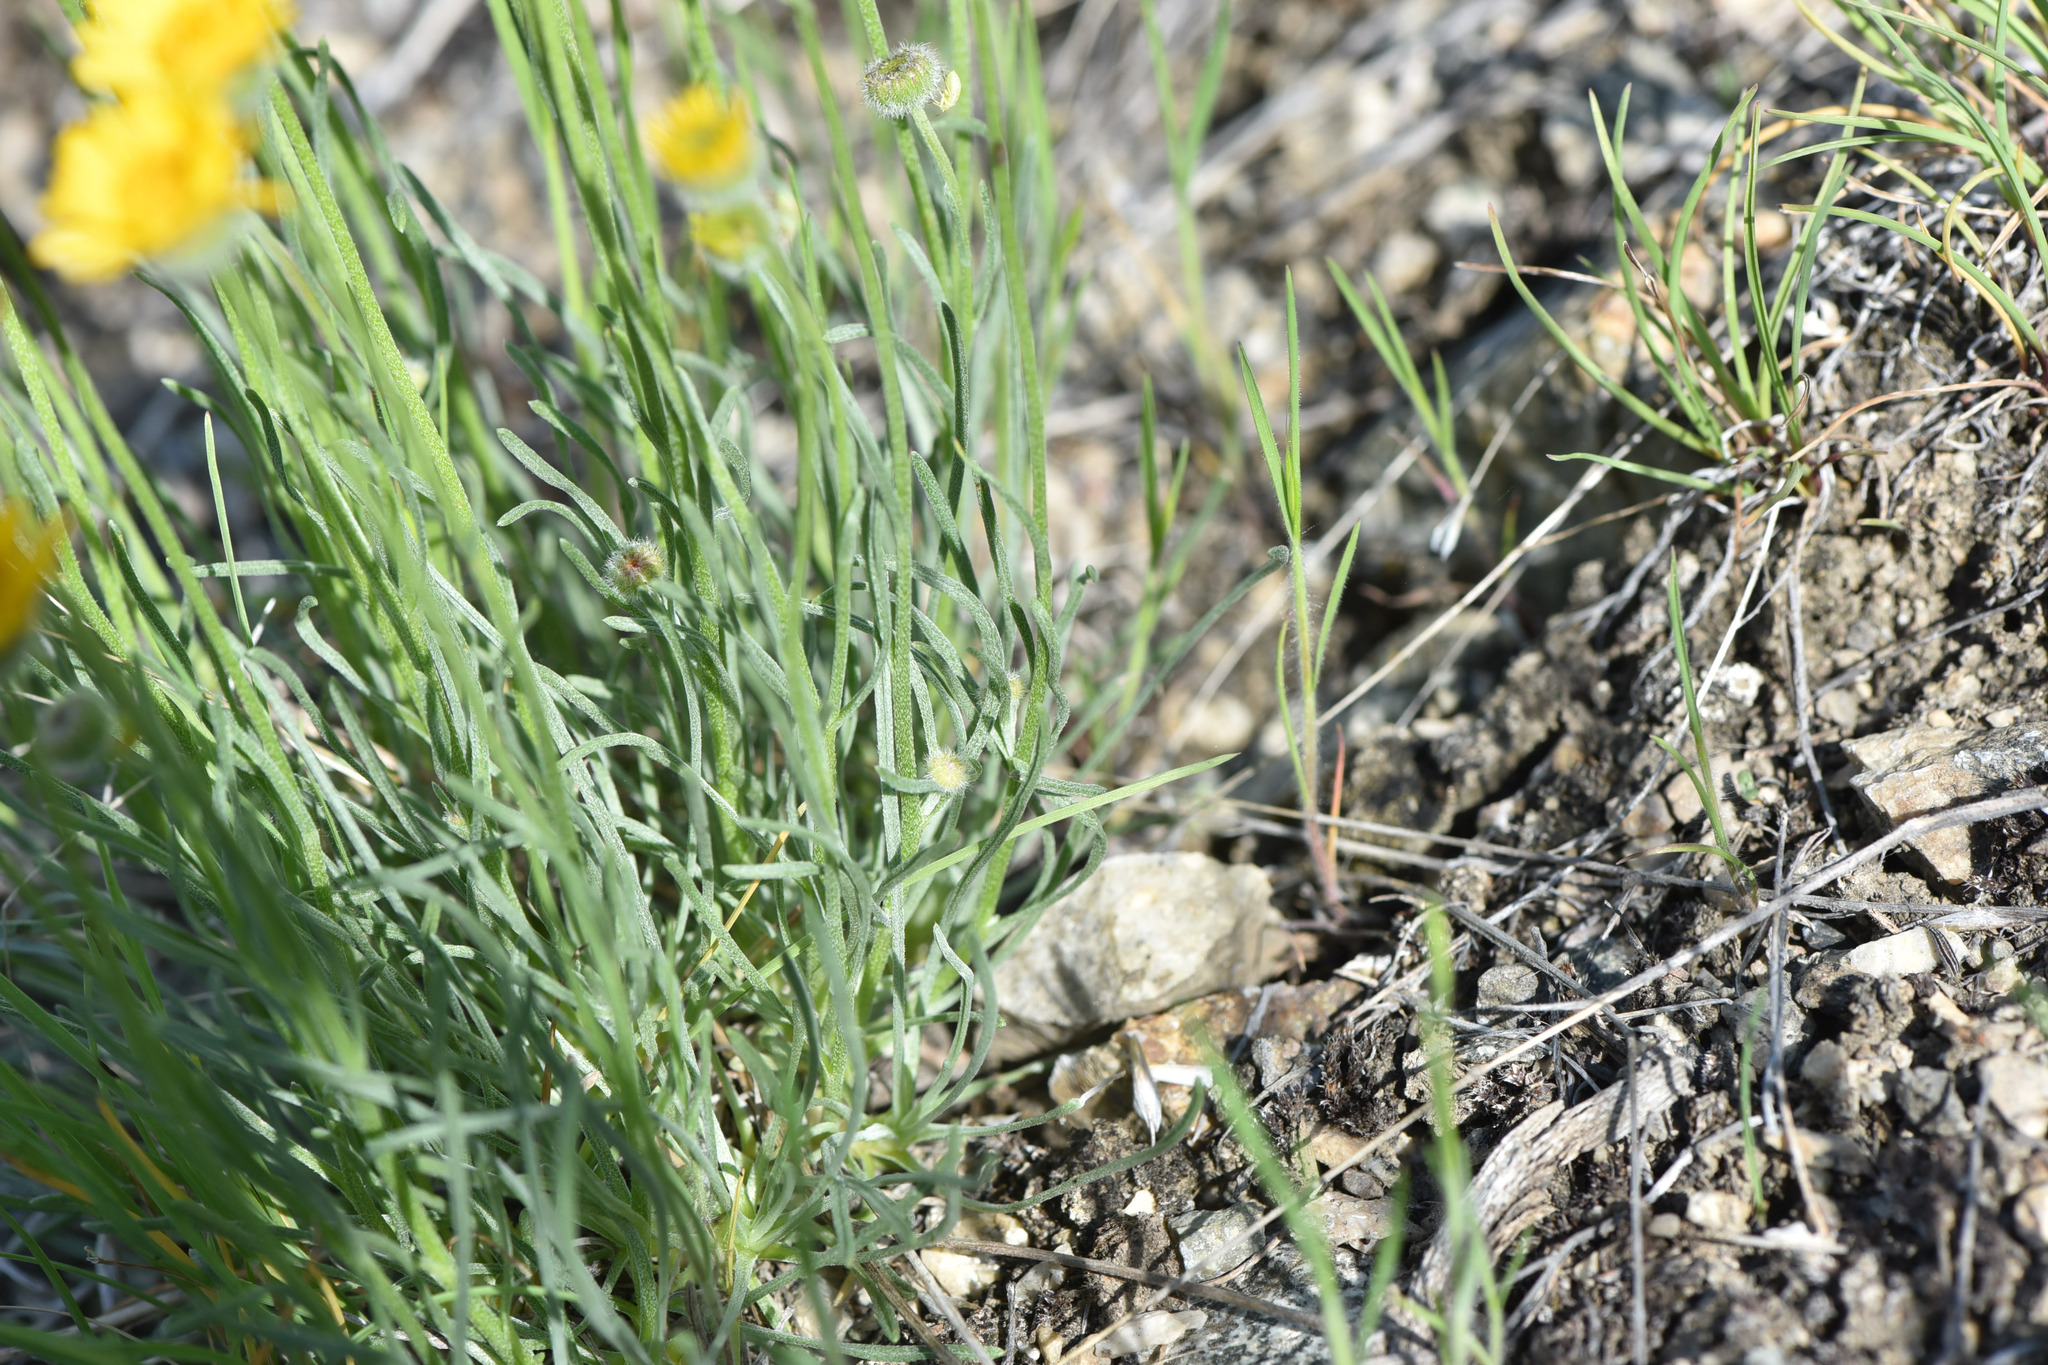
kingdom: Plantae
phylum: Tracheophyta
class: Magnoliopsida
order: Asterales
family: Asteraceae
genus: Erigeron
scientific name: Erigeron linearis
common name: Desert yellow fleabane
